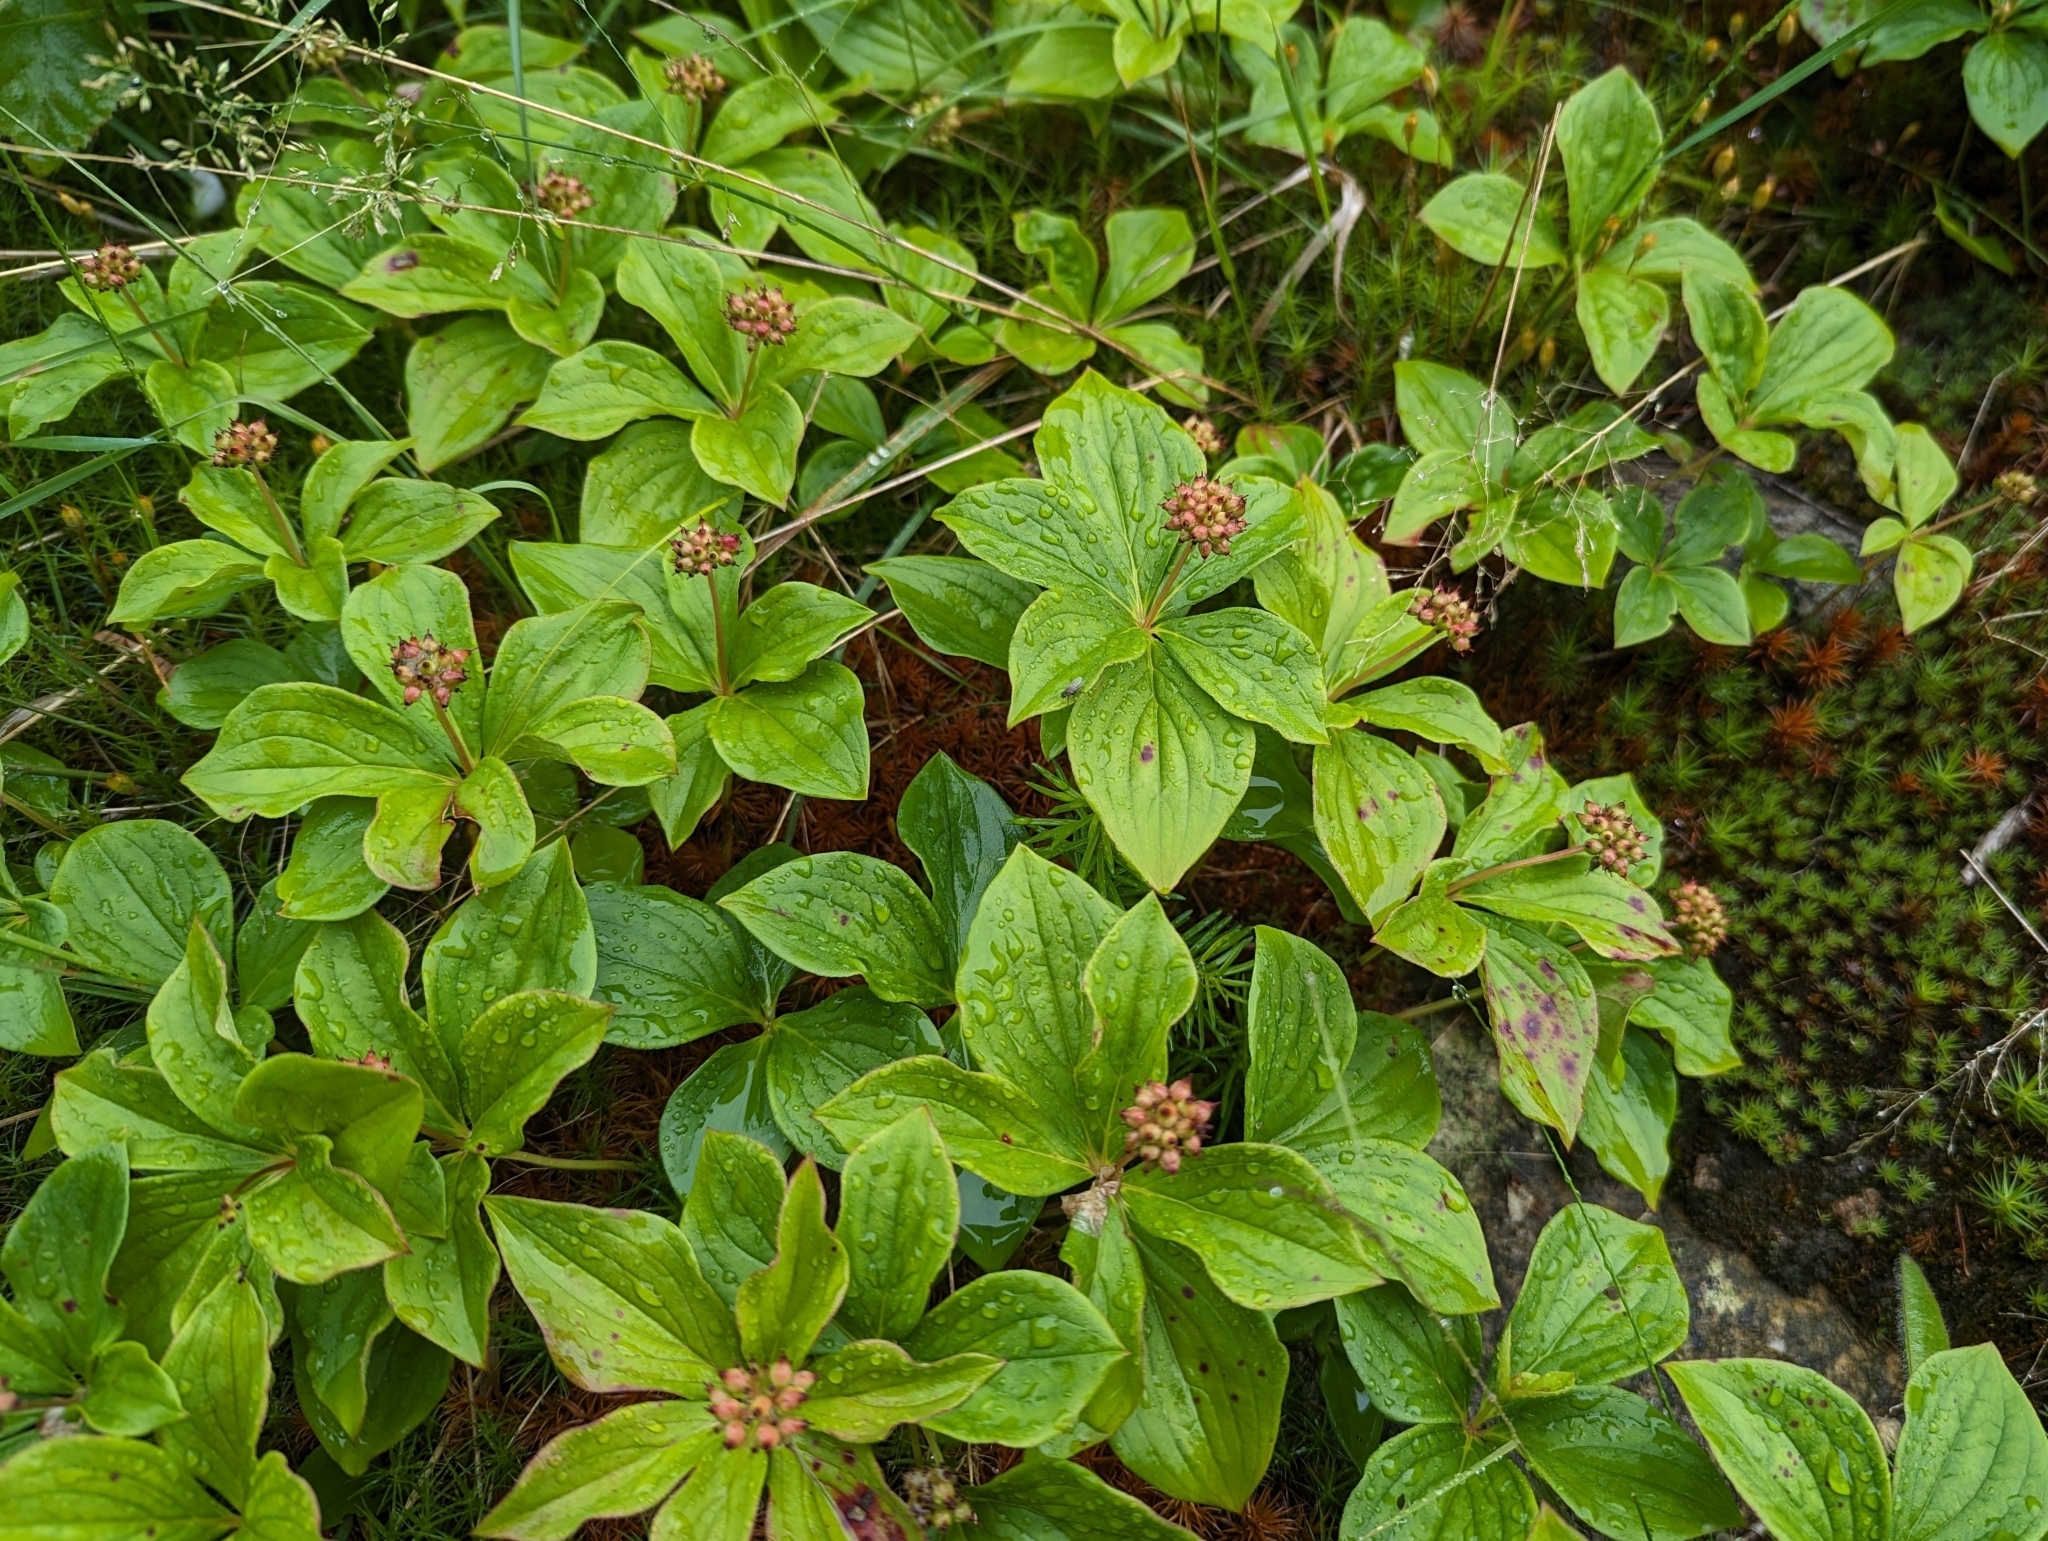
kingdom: Plantae
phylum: Tracheophyta
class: Magnoliopsida
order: Cornales
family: Cornaceae
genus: Cornus
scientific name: Cornus canadensis
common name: Creeping dogwood
